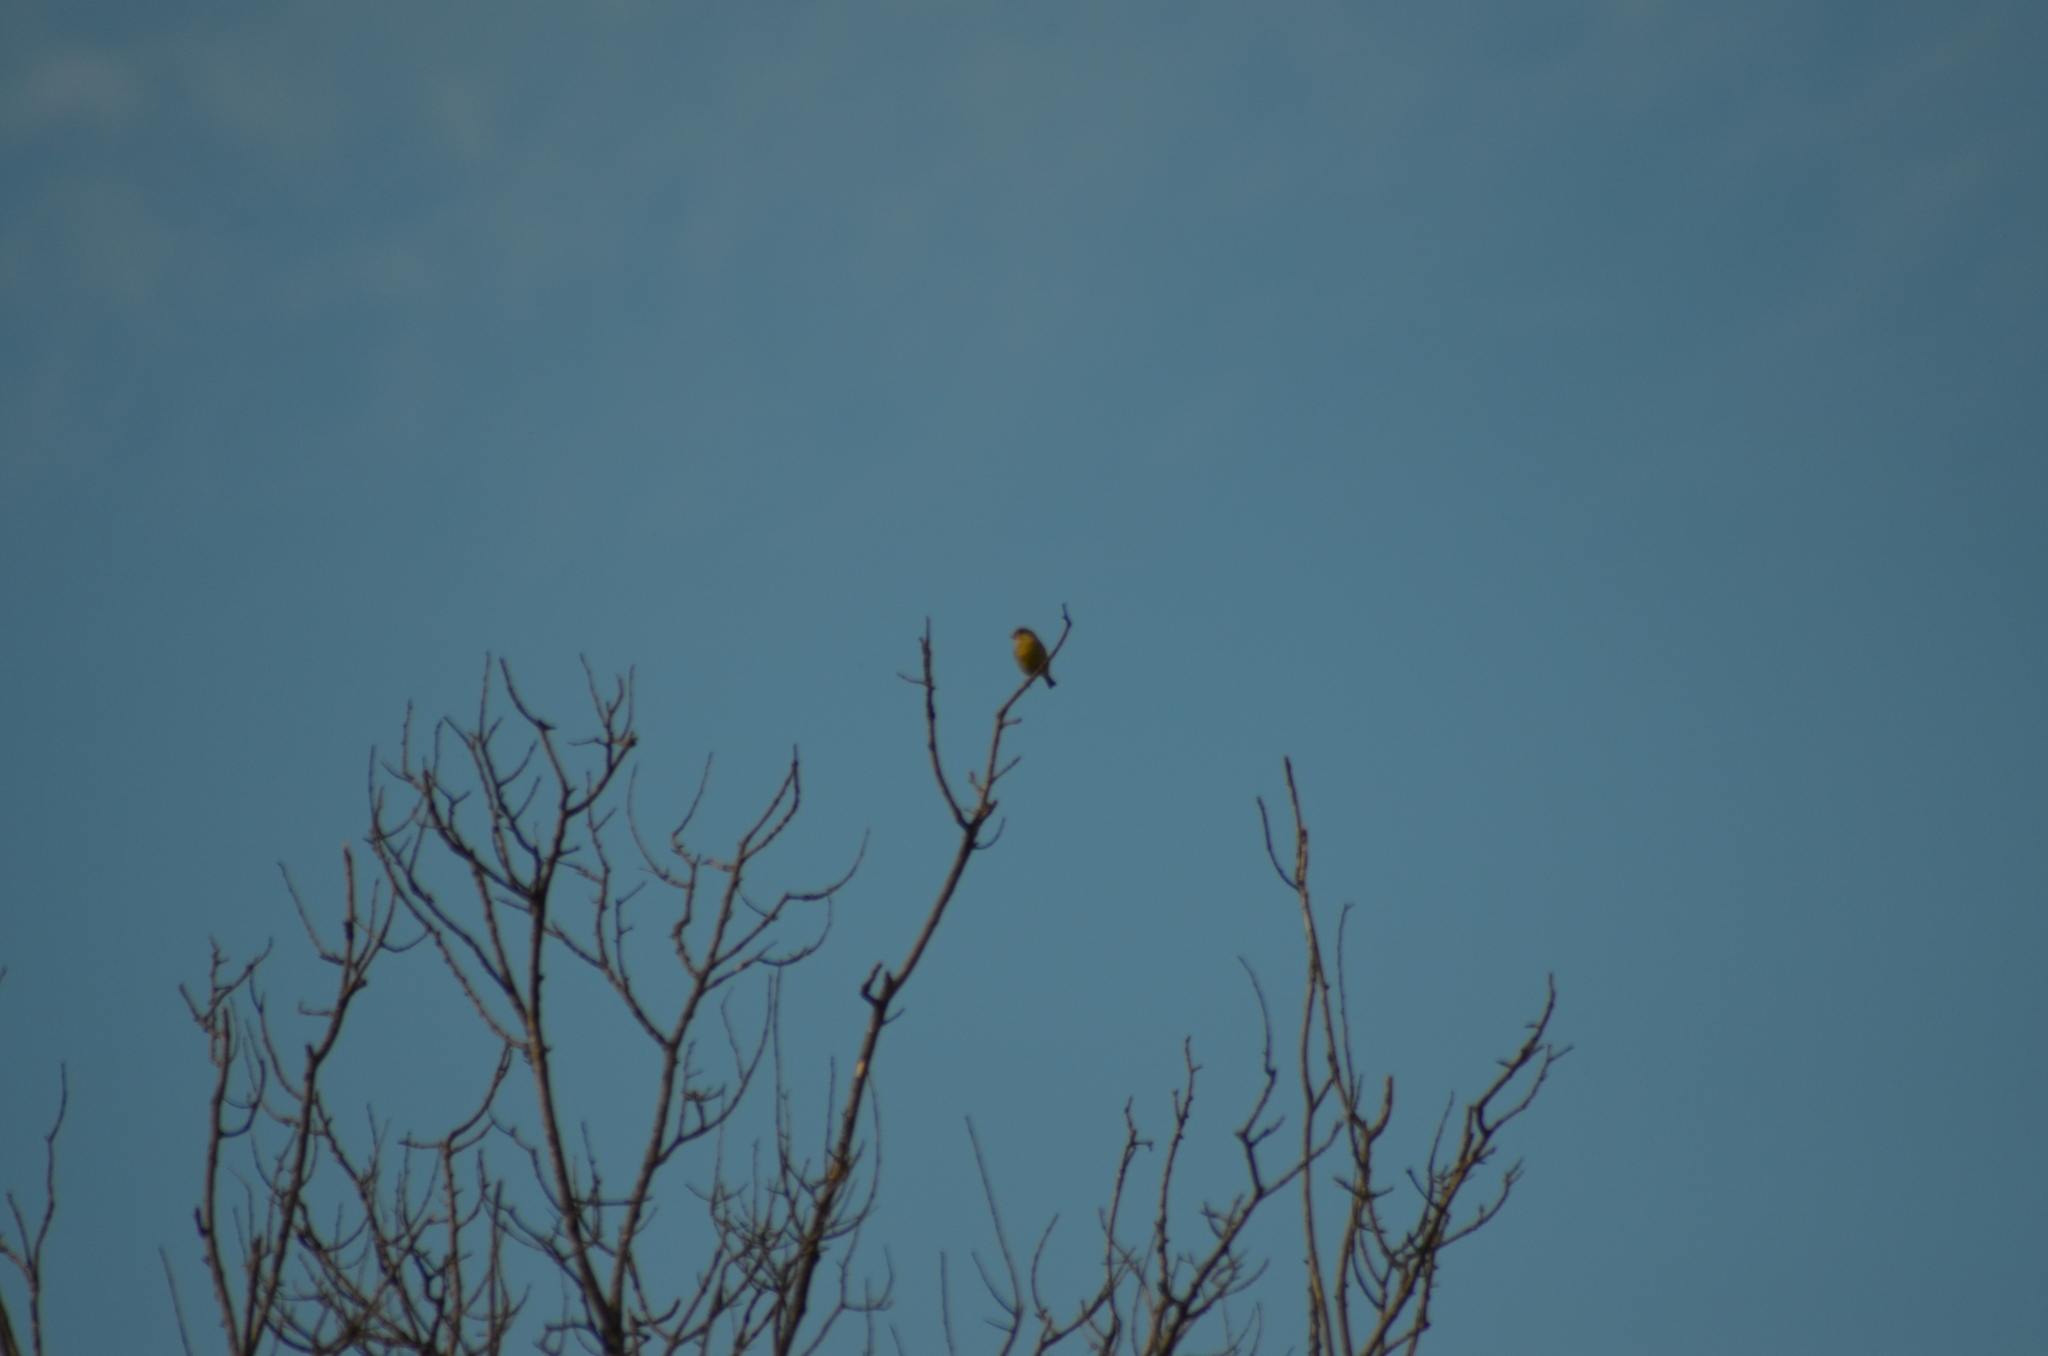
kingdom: Plantae
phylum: Tracheophyta
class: Liliopsida
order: Poales
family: Poaceae
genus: Chloris
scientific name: Chloris chloris
